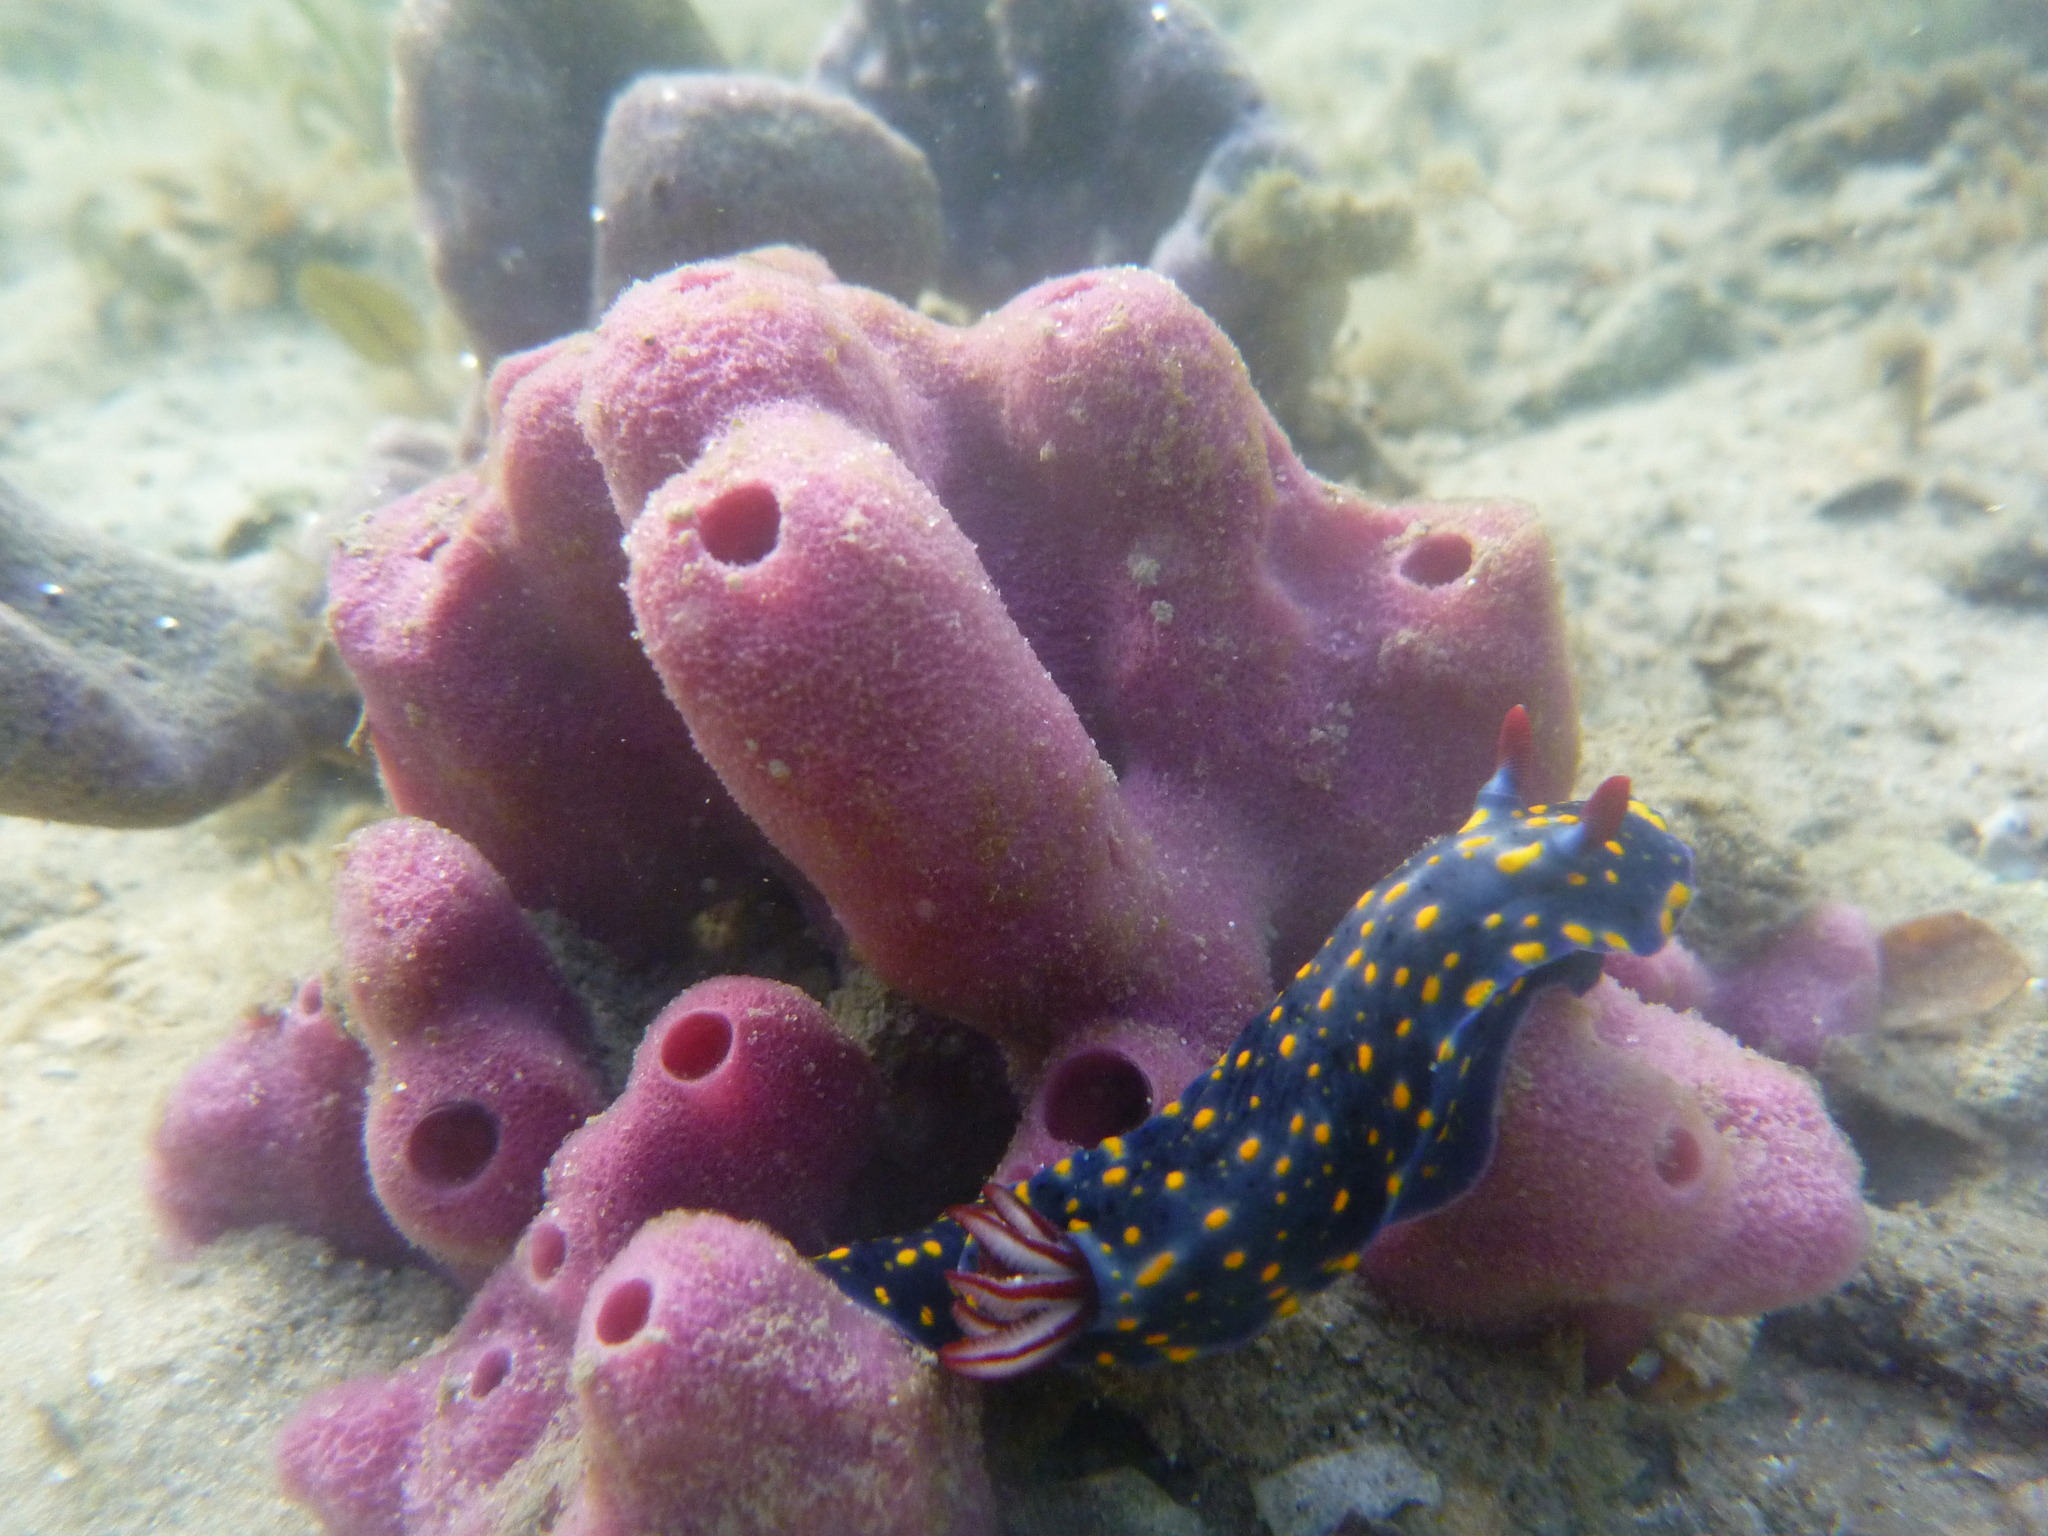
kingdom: Animalia
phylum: Mollusca
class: Gastropoda
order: Nudibranchia
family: Chromodorididae
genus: Hypselodoris
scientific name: Hypselodoris obscura
